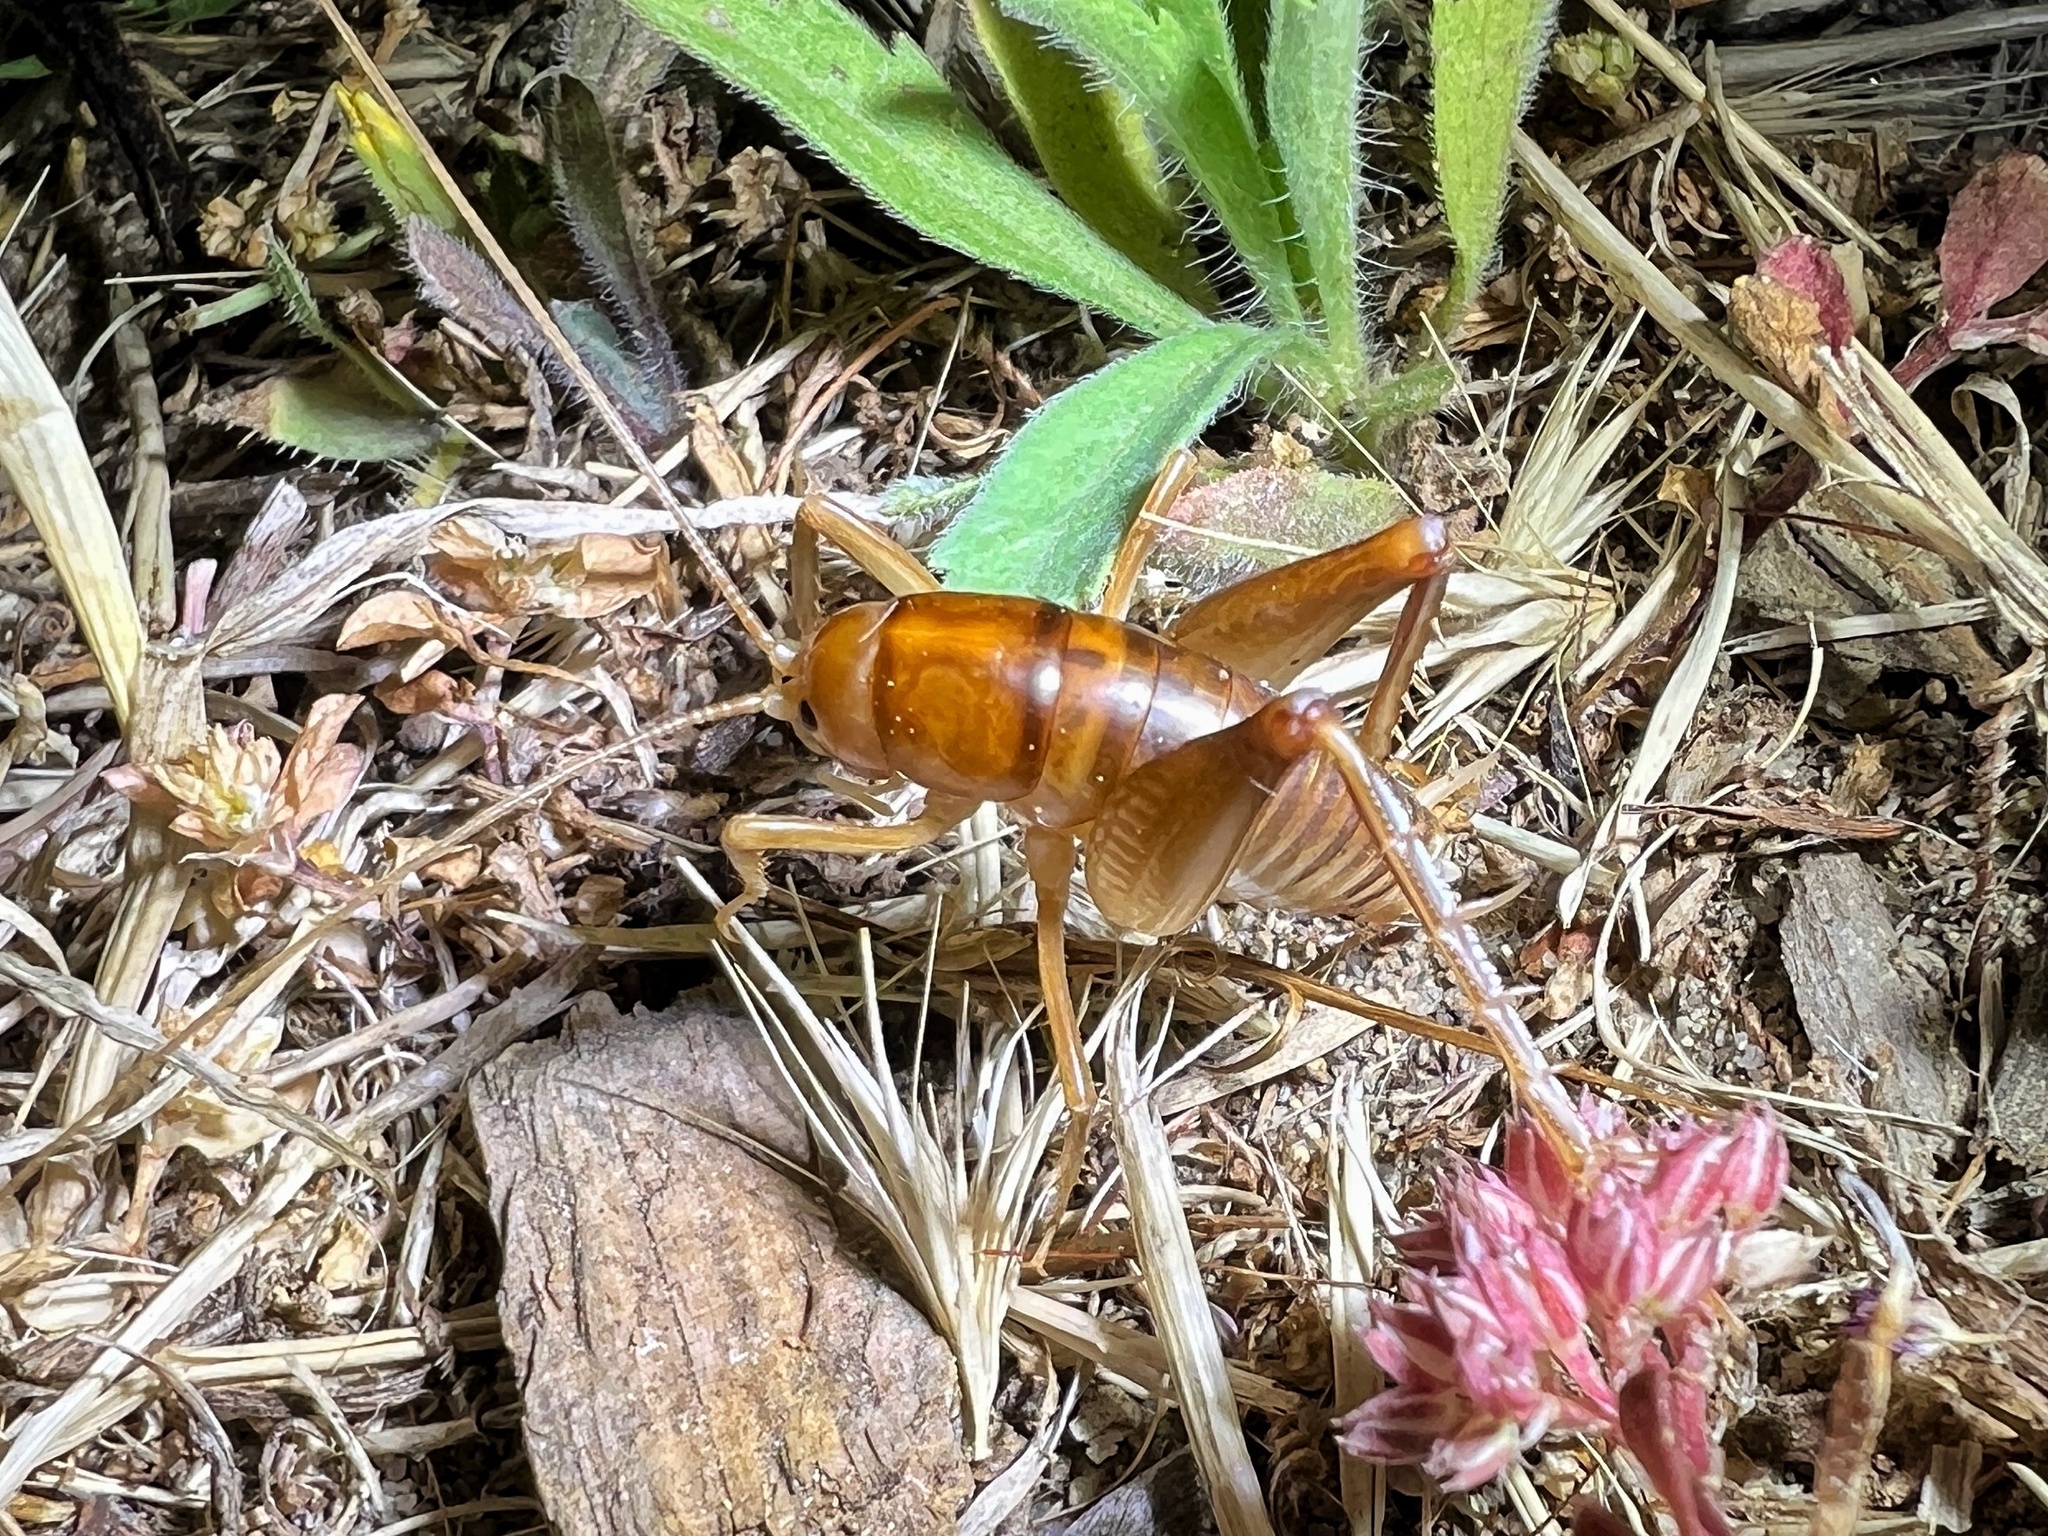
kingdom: Animalia
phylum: Arthropoda
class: Insecta
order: Orthoptera
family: Rhaphidophoridae
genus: Ceuthophilus
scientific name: Ceuthophilus hesperus
